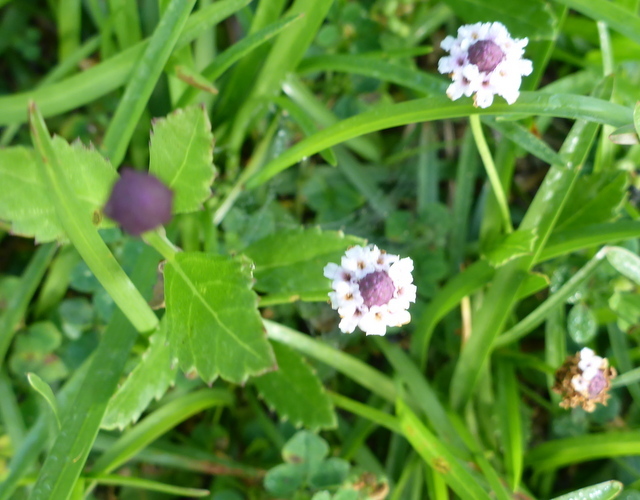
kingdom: Plantae
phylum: Tracheophyta
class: Magnoliopsida
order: Lamiales
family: Verbenaceae
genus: Phyla
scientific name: Phyla nodiflora
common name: Frogfruit
